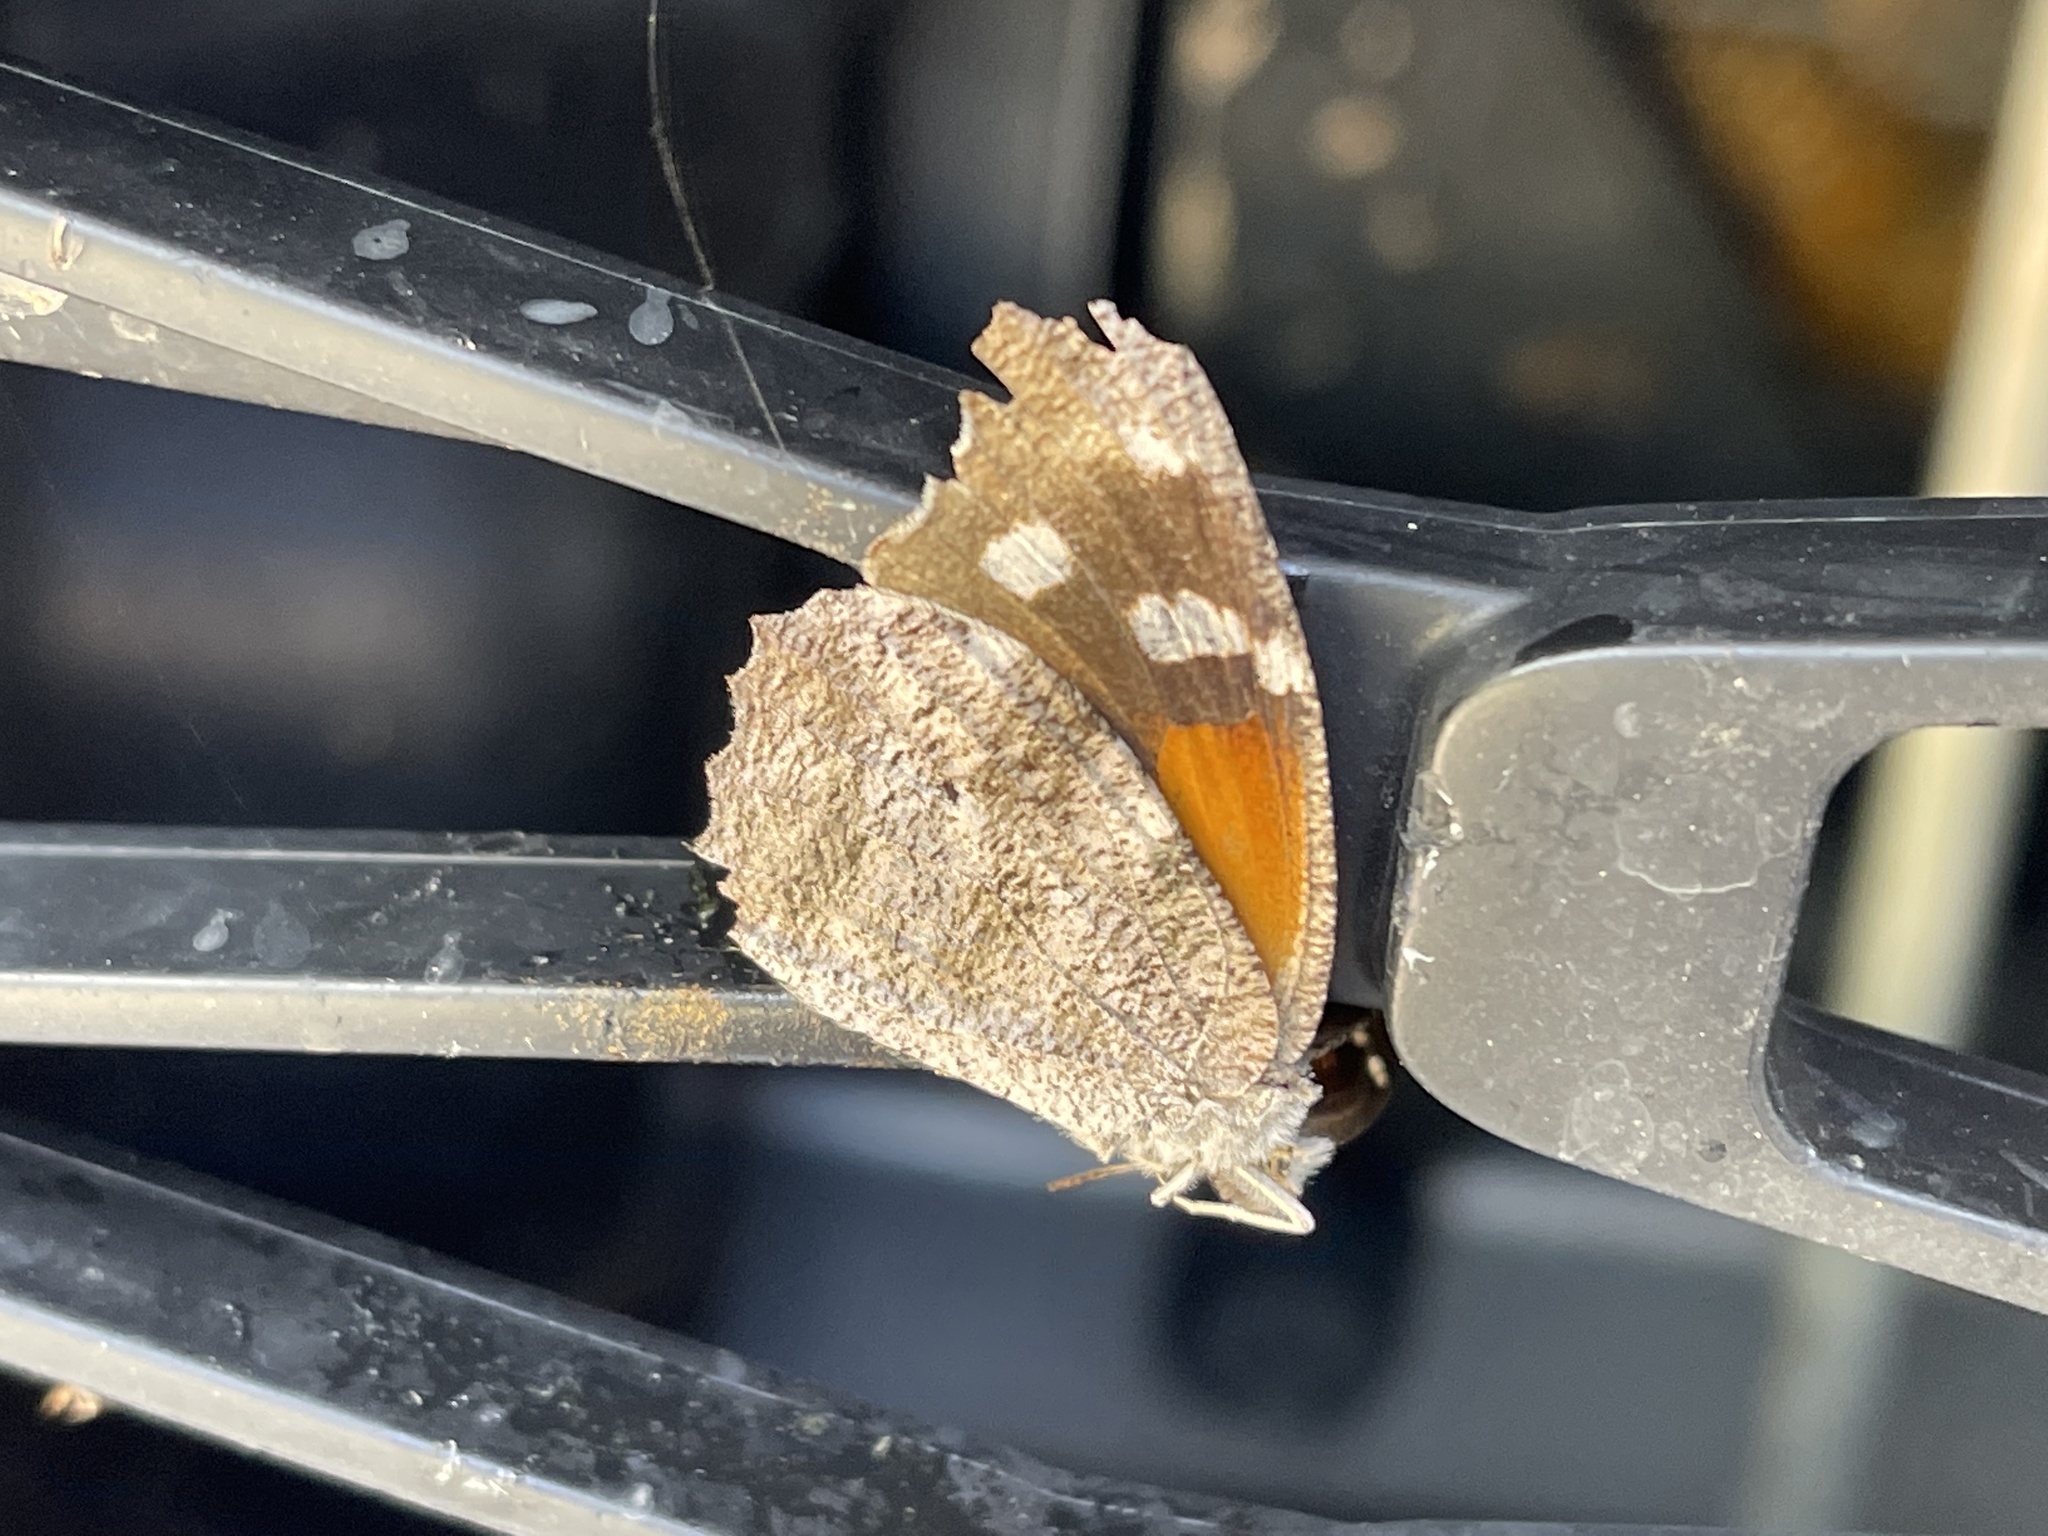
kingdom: Animalia
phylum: Arthropoda
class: Insecta
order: Lepidoptera
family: Nymphalidae
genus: Libytheana
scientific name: Libytheana carinenta
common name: American snout
